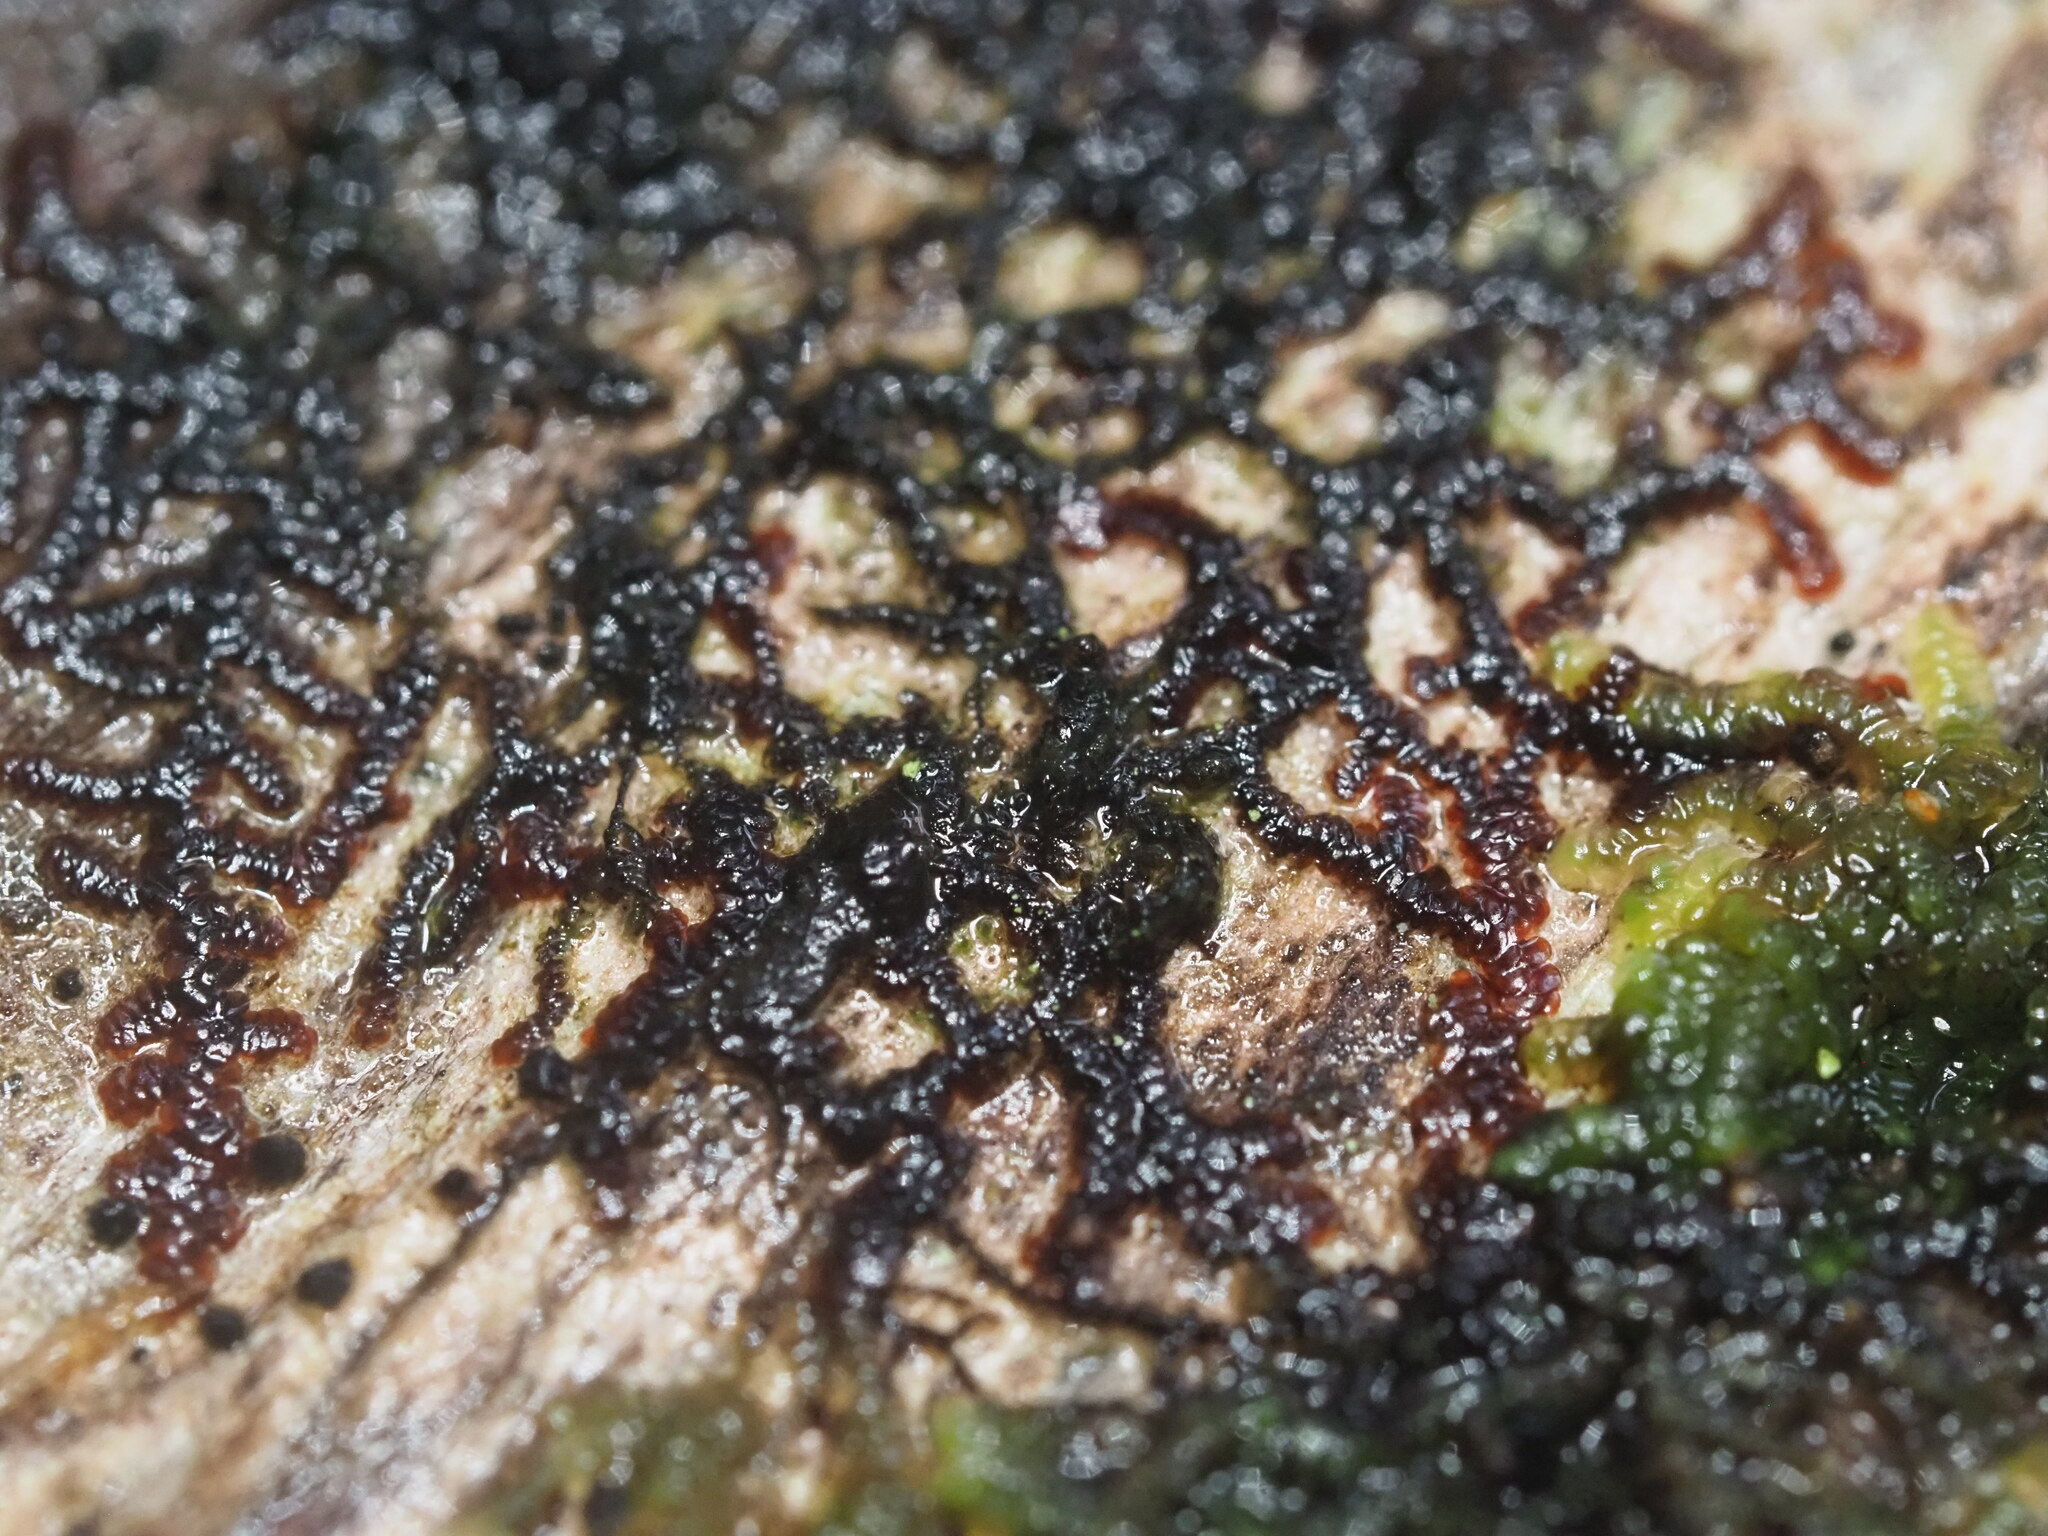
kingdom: Plantae
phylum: Marchantiophyta
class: Jungermanniopsida
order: Porellales
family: Frullaniaceae
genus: Frullania
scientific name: Frullania meyeniana
